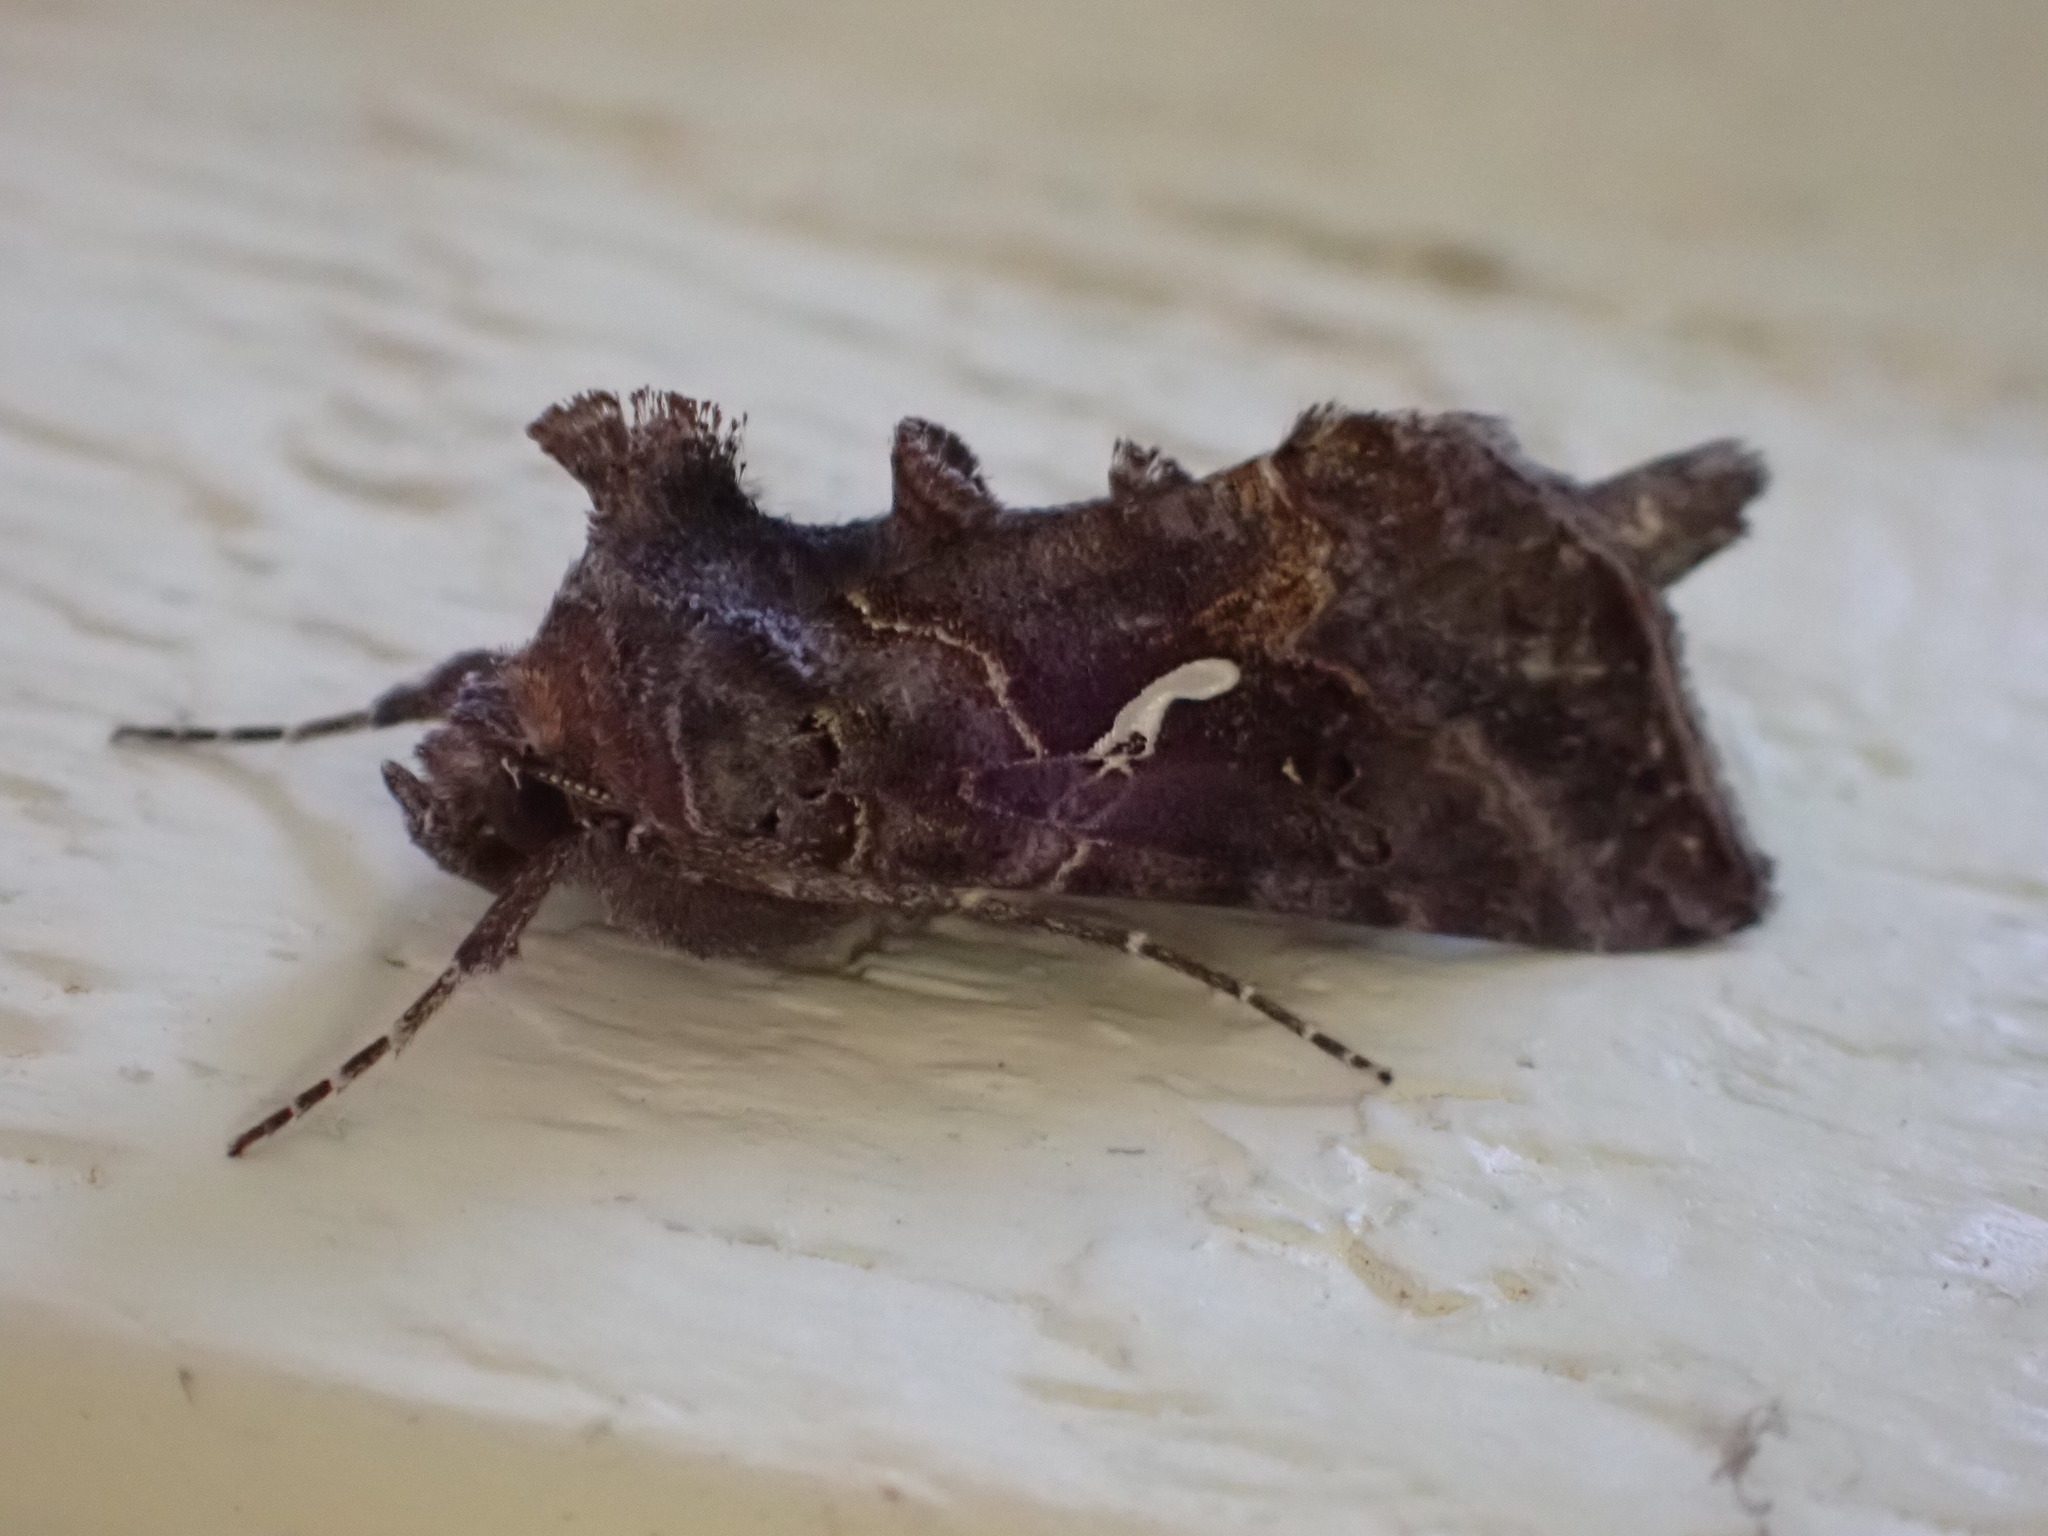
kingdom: Animalia
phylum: Arthropoda
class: Insecta
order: Lepidoptera
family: Noctuidae
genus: Autographa
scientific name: Autographa precationis
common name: Common looper moth
